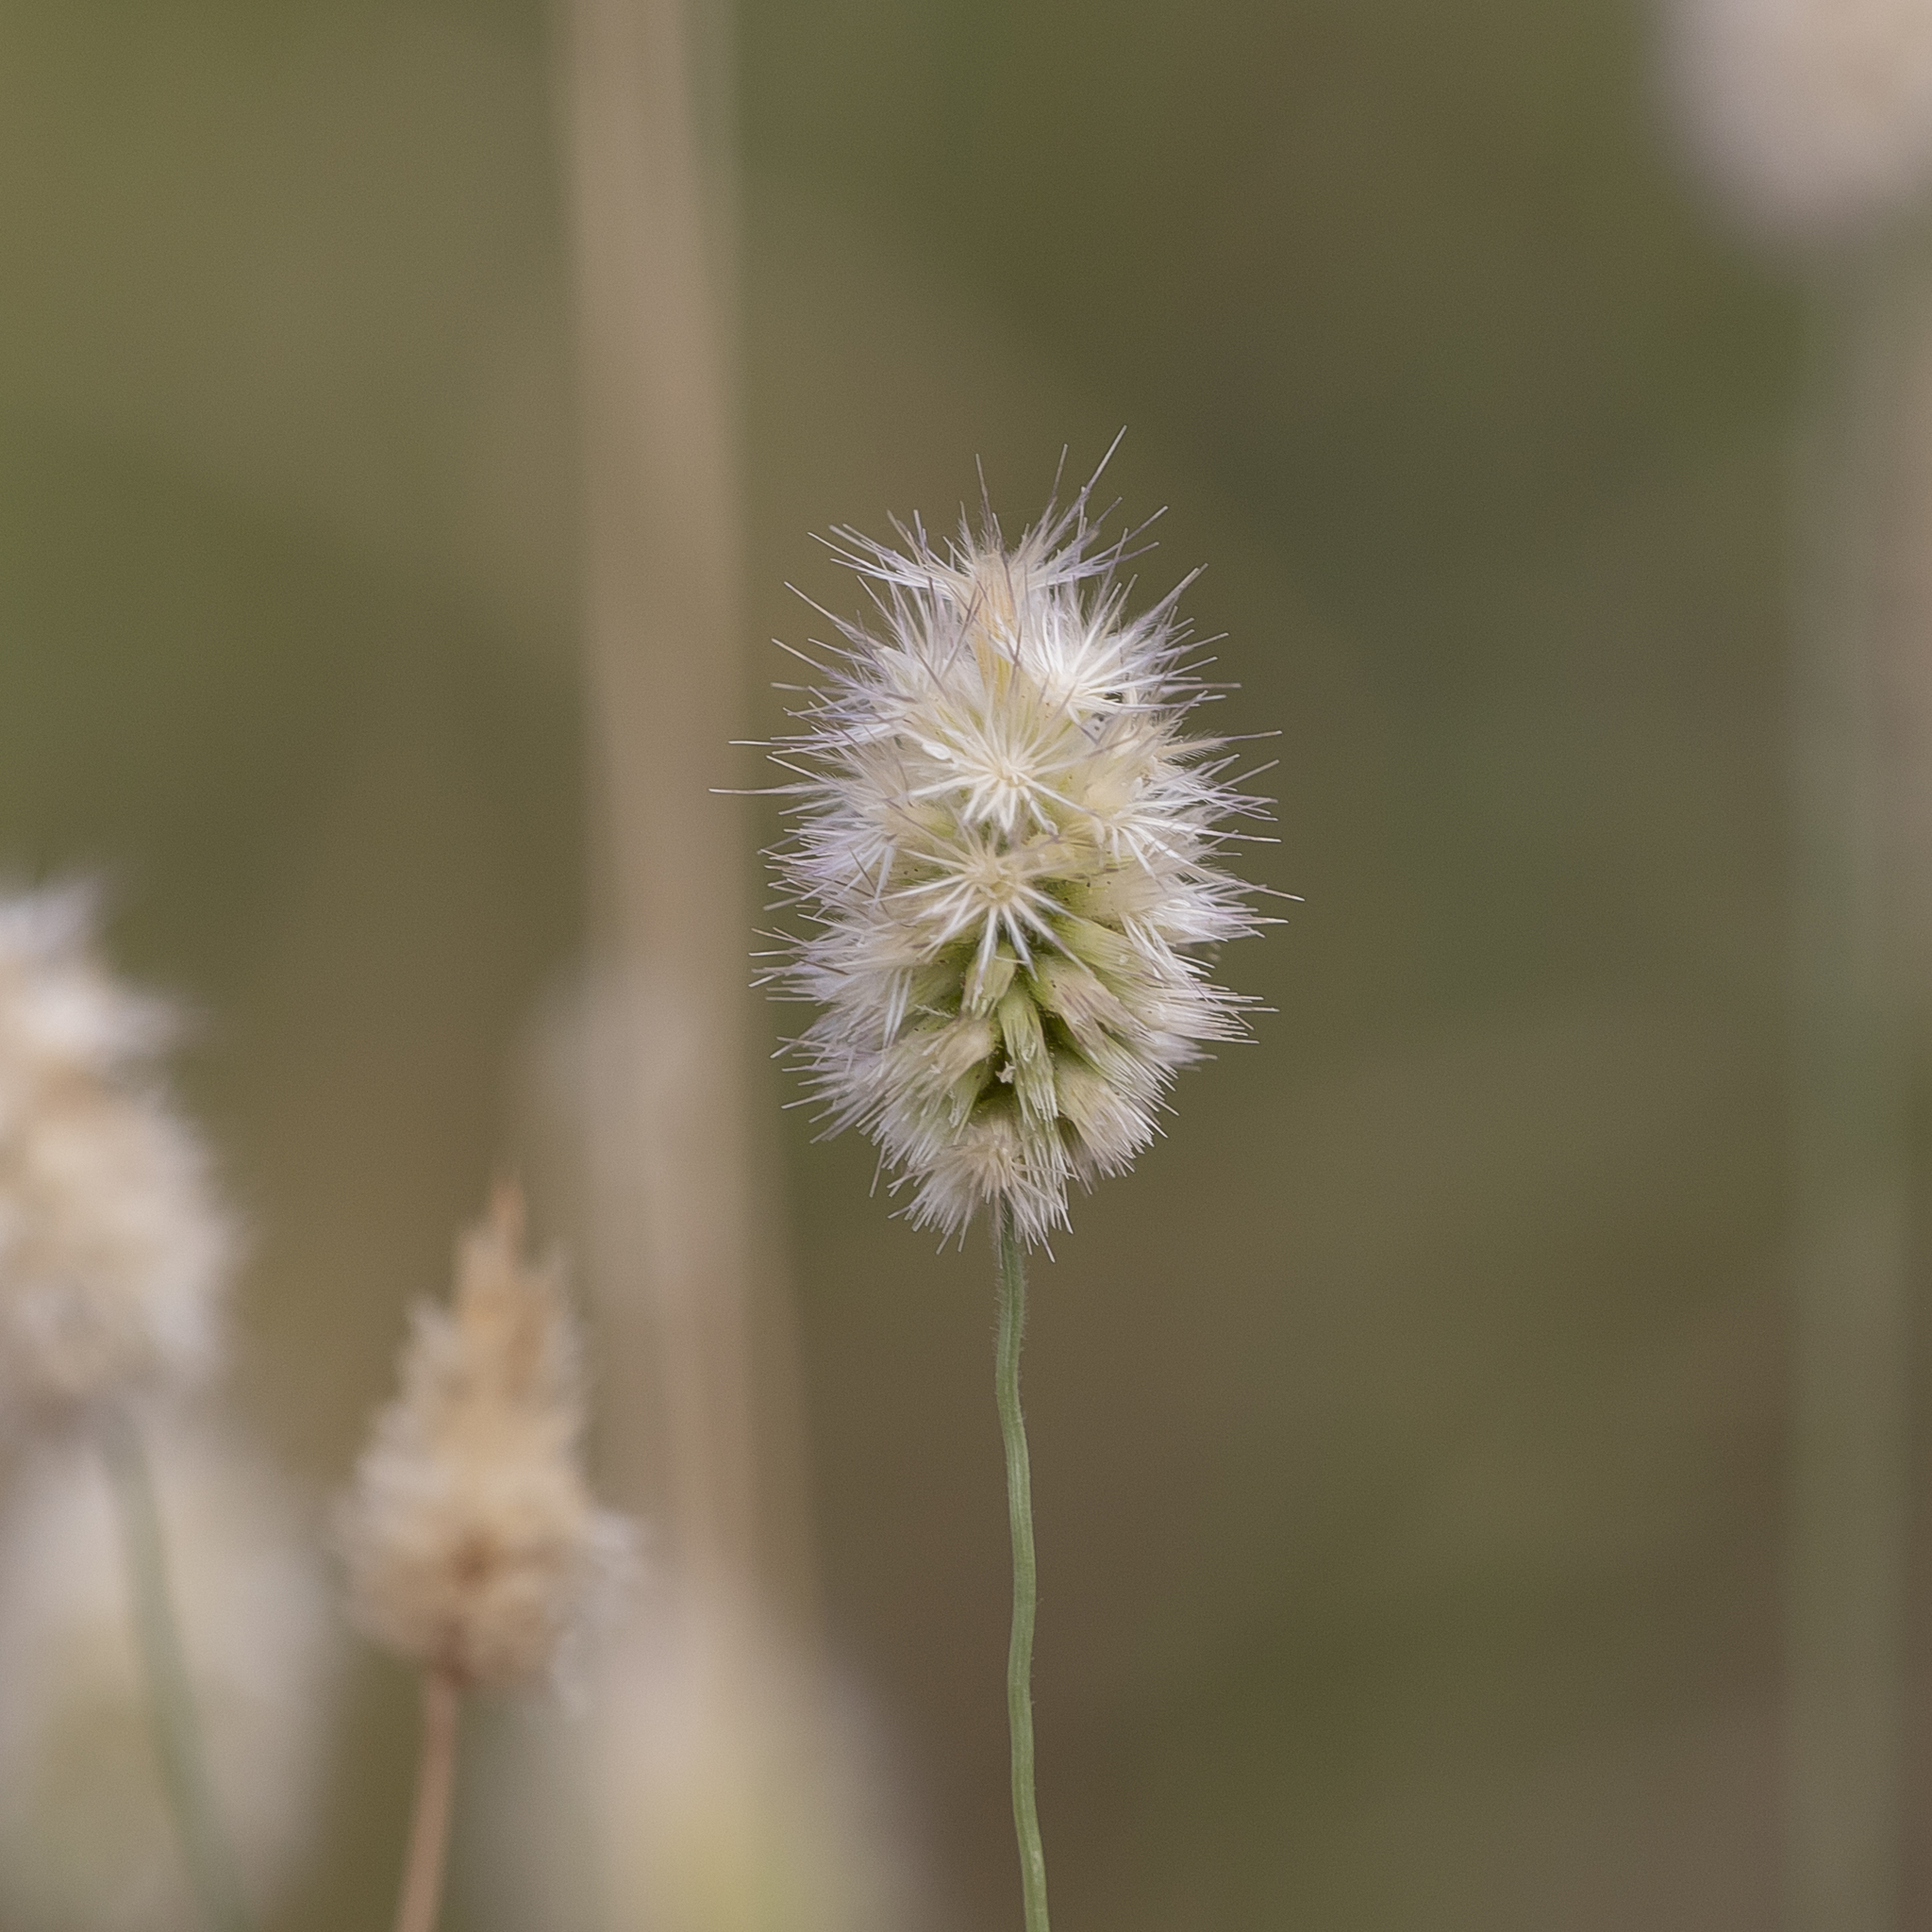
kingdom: Plantae
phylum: Tracheophyta
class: Liliopsida
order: Poales
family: Poaceae
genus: Enneapogon
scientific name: Enneapogon lindleyanus
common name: Conetop nineawn
